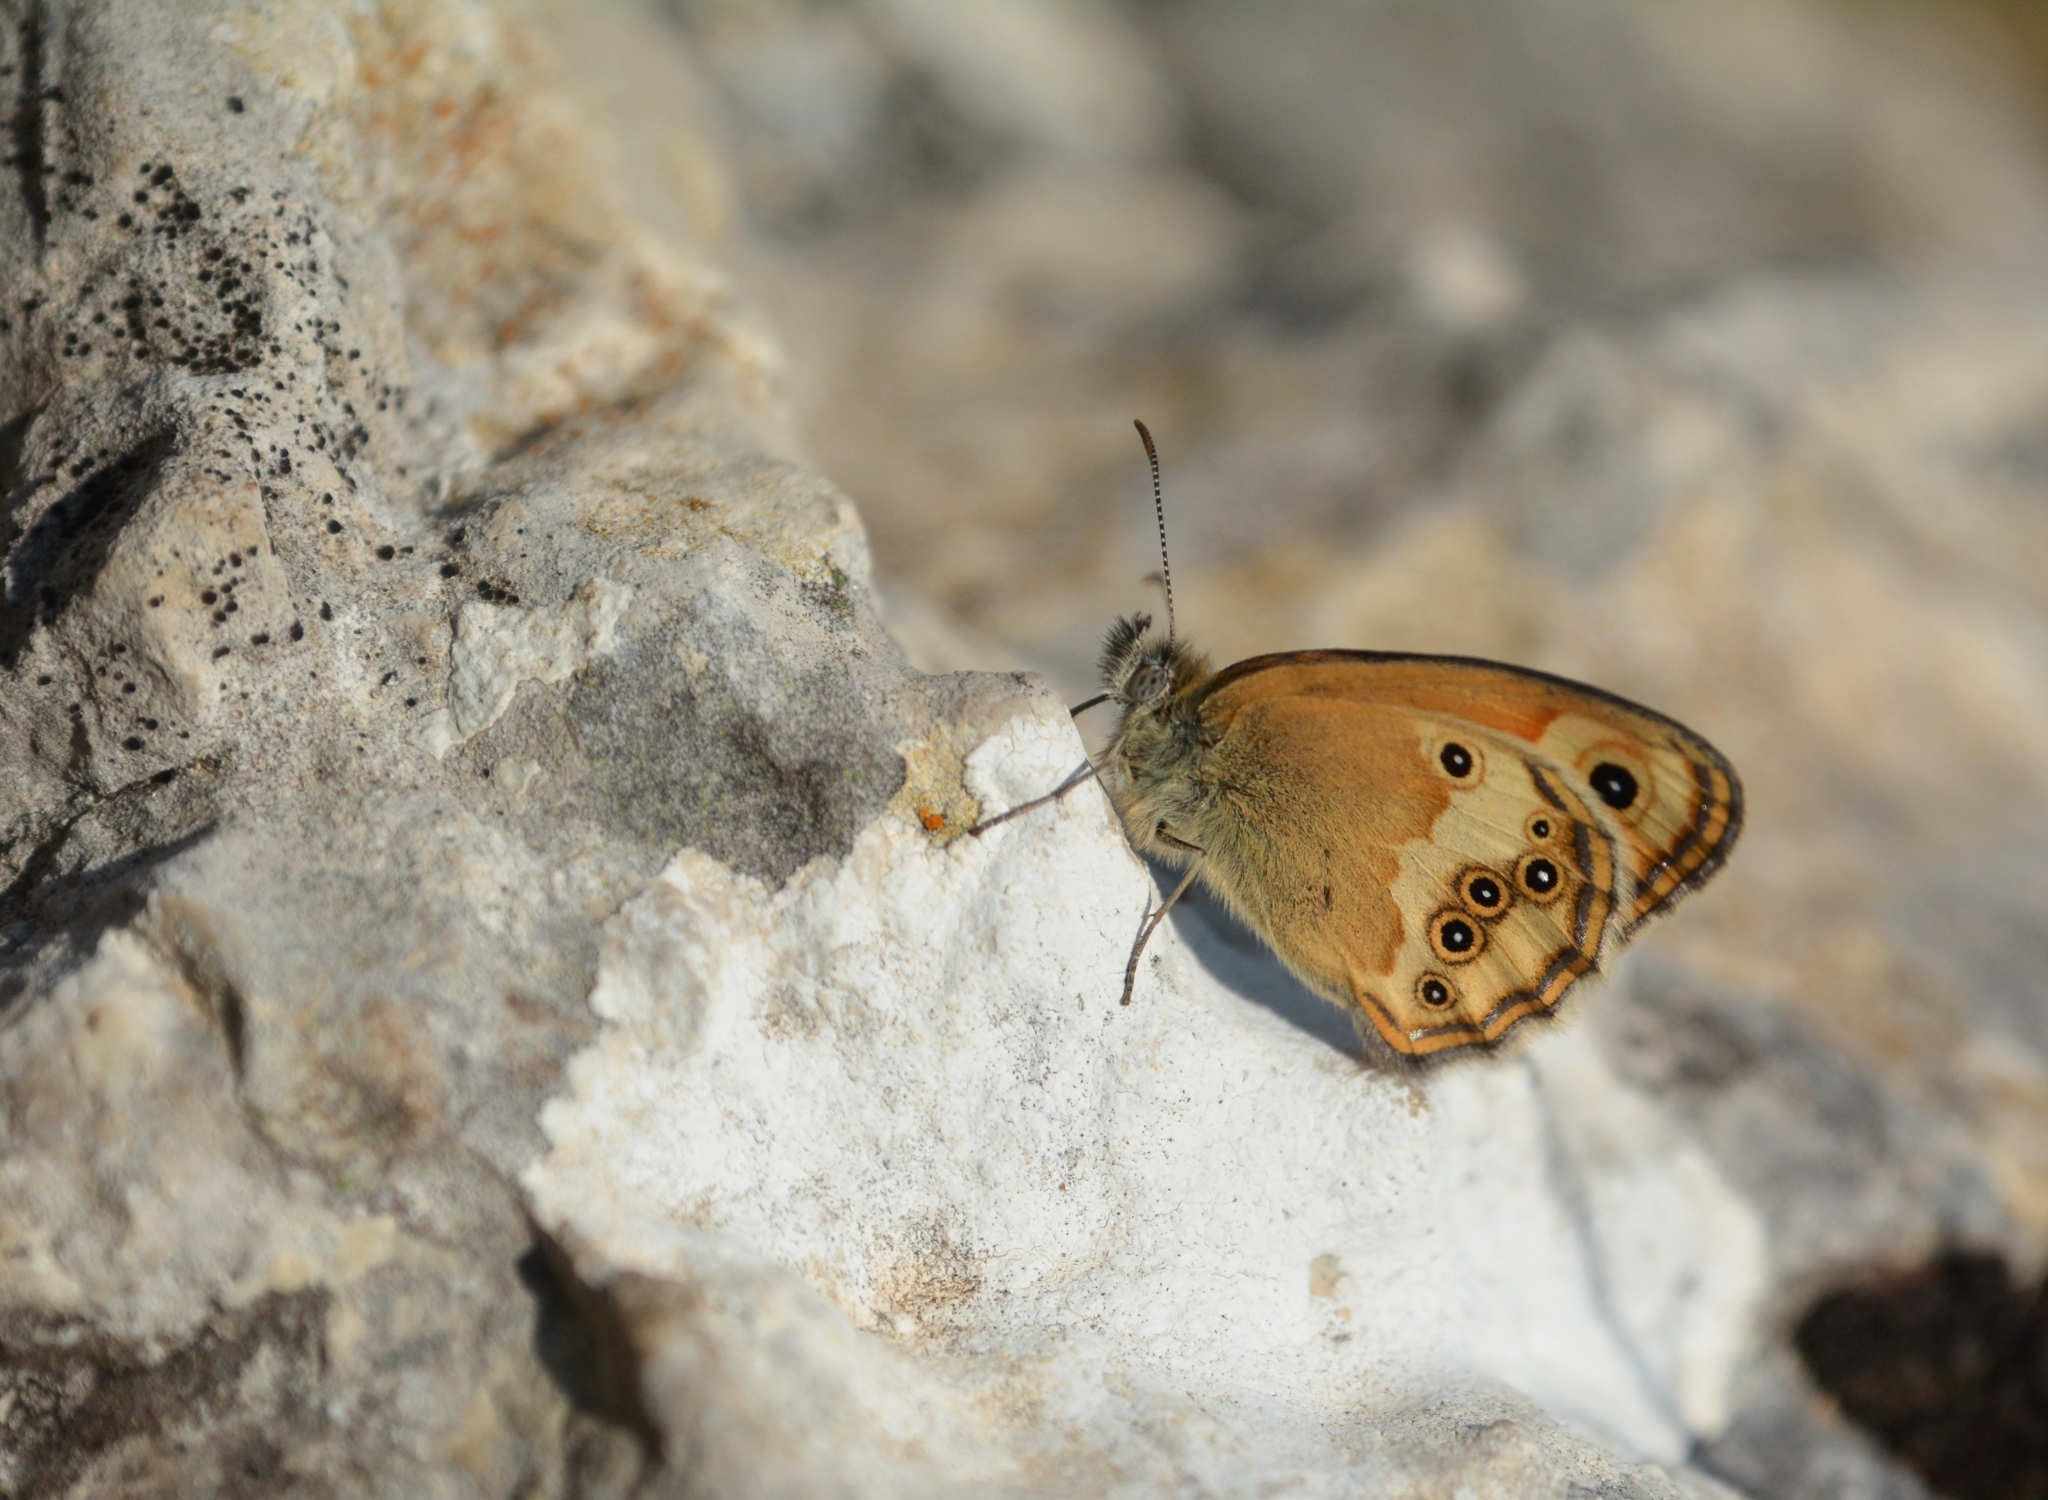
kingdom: Animalia
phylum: Arthropoda
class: Insecta
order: Lepidoptera
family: Nymphalidae
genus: Coenonympha
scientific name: Coenonympha dorus
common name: Dusky heath
